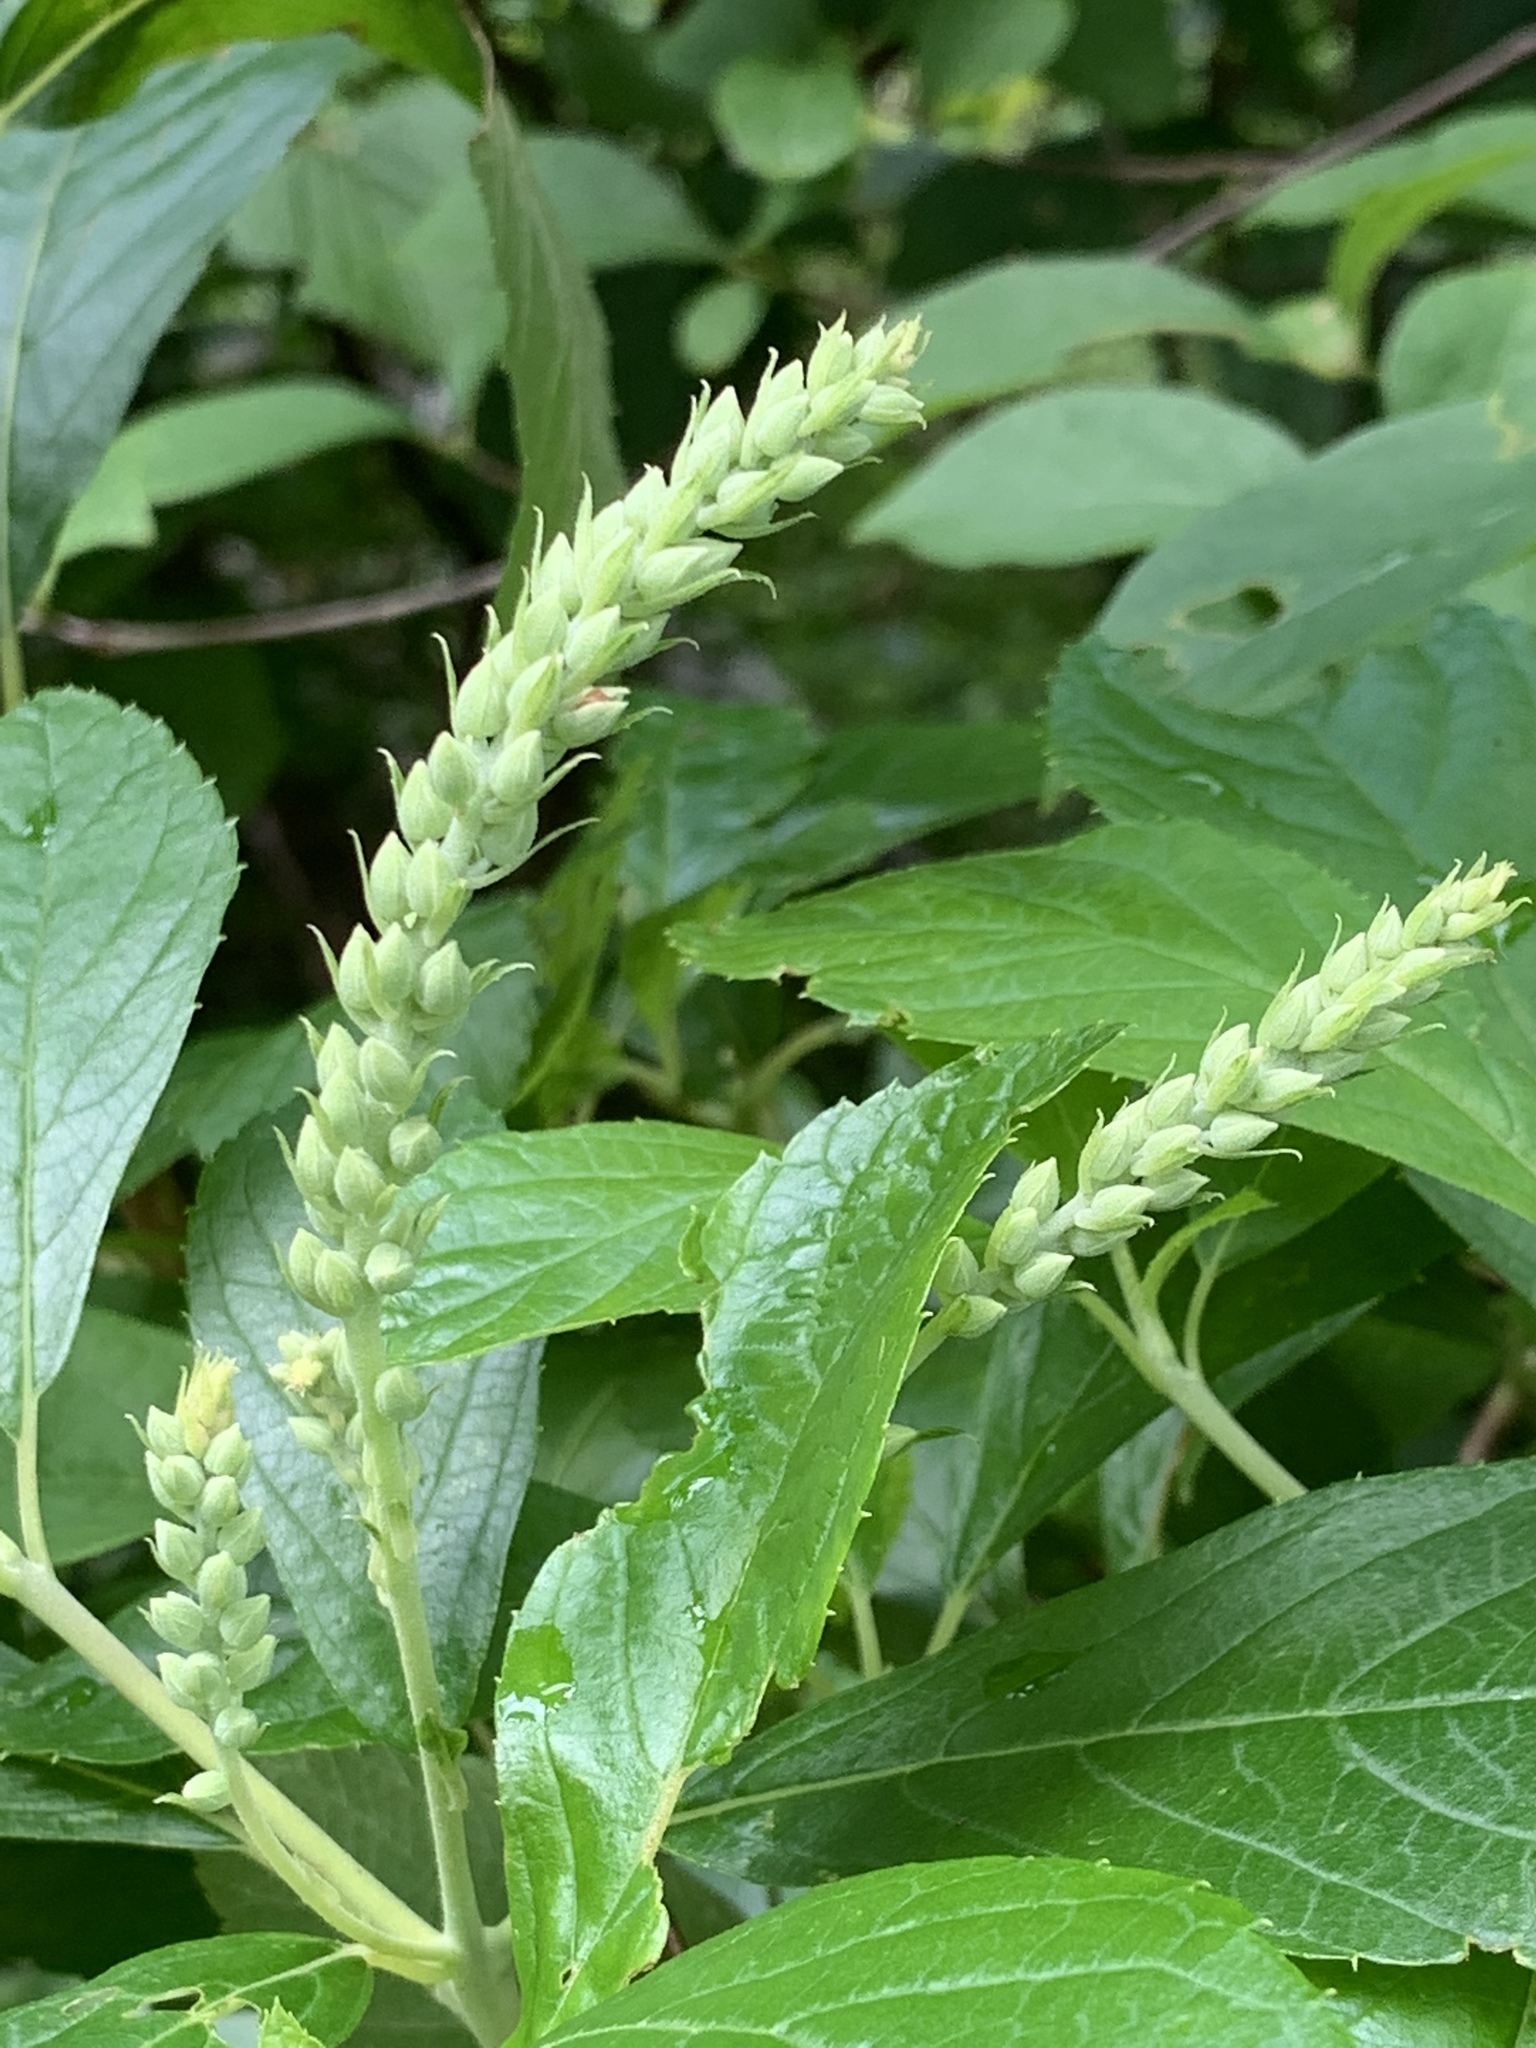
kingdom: Plantae
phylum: Tracheophyta
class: Magnoliopsida
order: Ericales
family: Clethraceae
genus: Clethra
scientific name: Clethra alnifolia
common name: Sweet pepperbush
